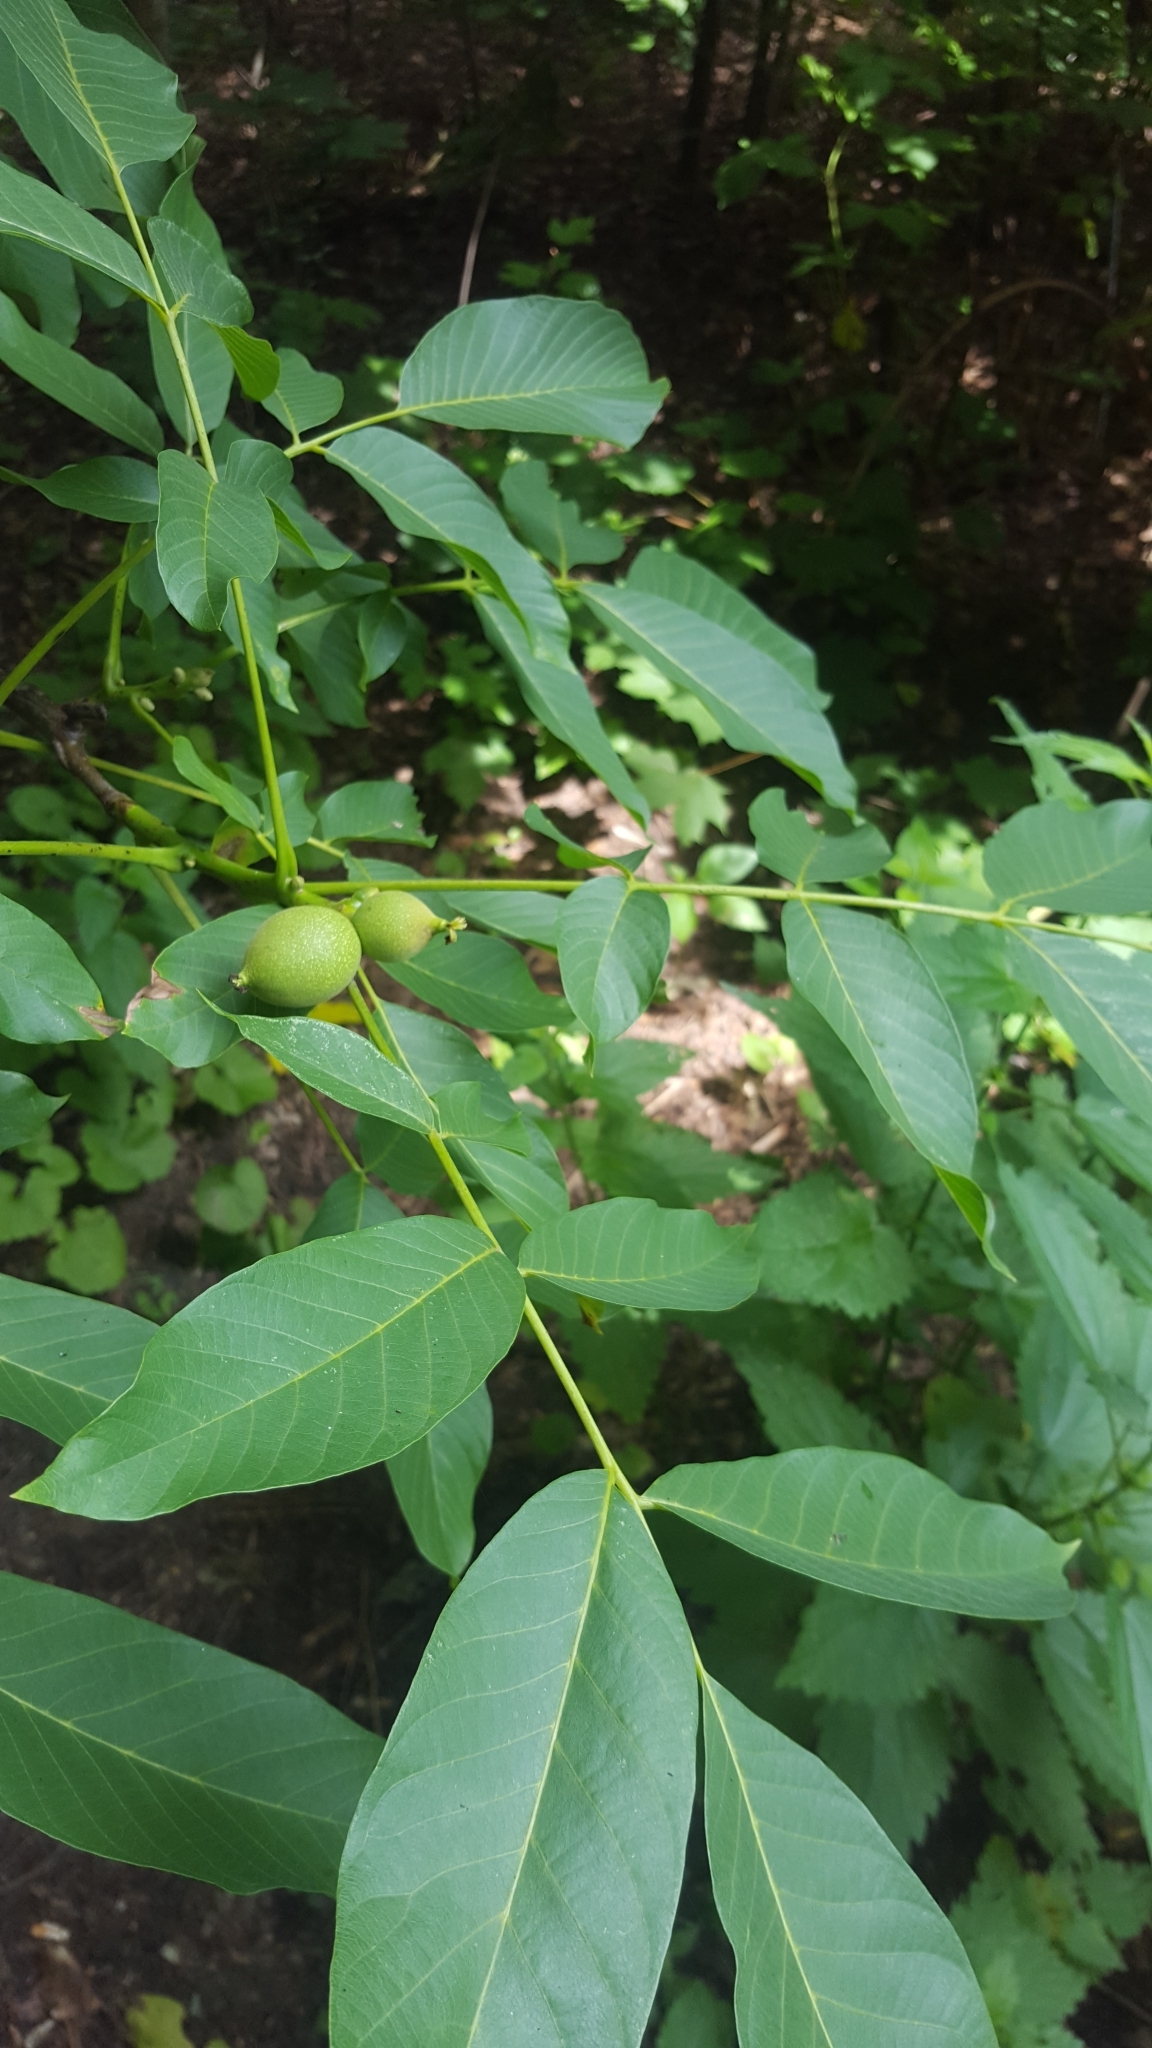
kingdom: Plantae
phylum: Tracheophyta
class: Magnoliopsida
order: Fagales
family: Juglandaceae
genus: Juglans
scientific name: Juglans regia
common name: Walnut
